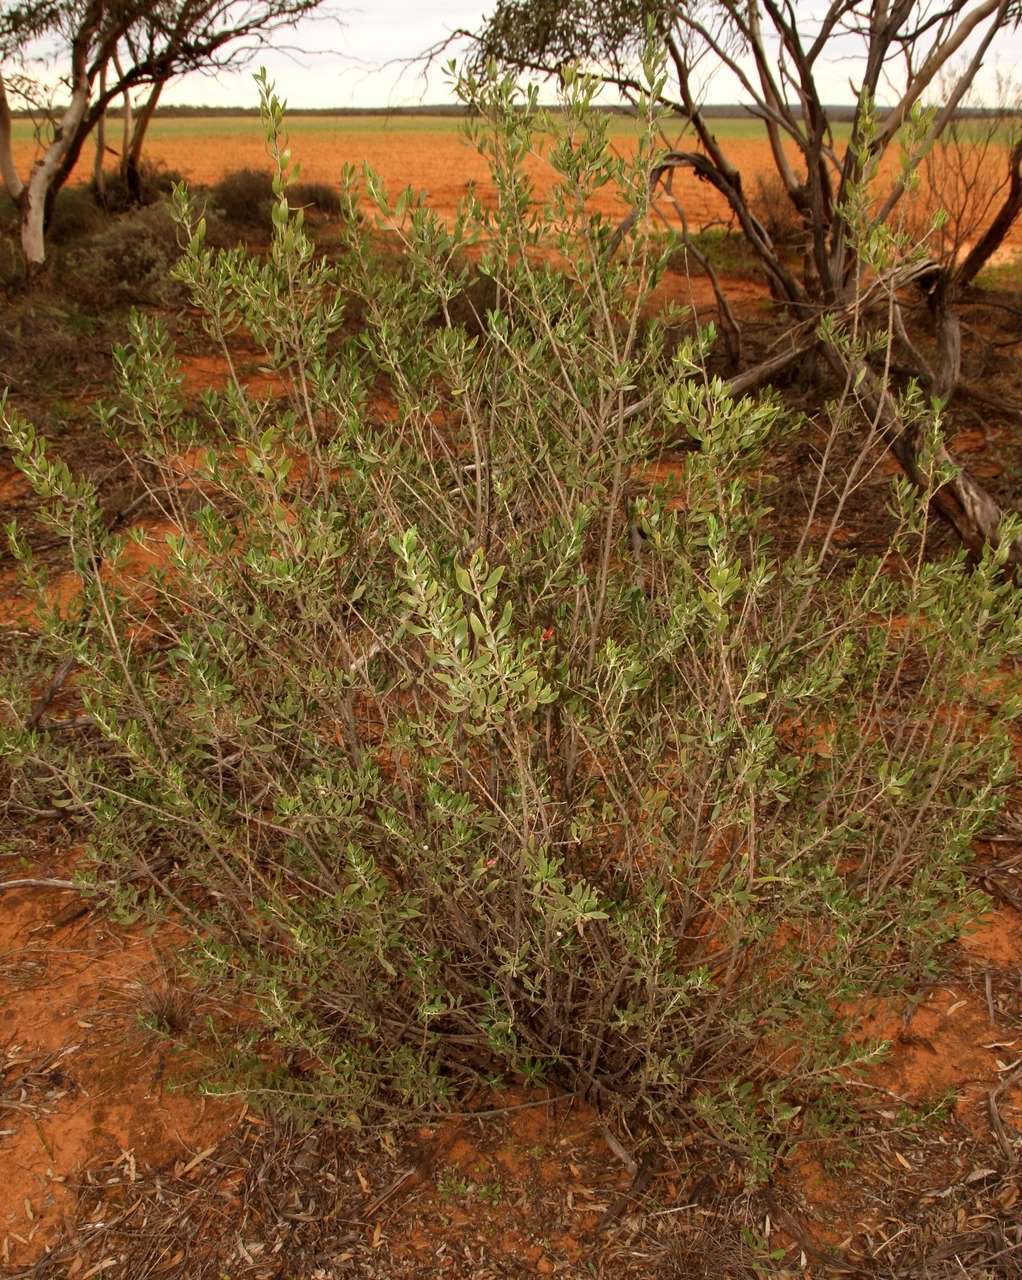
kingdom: Plantae
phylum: Tracheophyta
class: Magnoliopsida
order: Lamiales
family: Scrophulariaceae
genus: Eremophila
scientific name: Eremophila glabra
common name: Black-fuchsia
